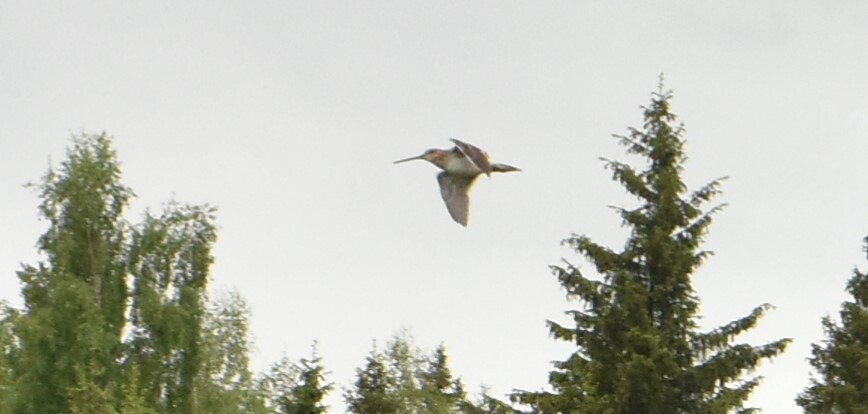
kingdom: Animalia
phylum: Chordata
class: Aves
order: Charadriiformes
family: Scolopacidae
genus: Gallinago
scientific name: Gallinago gallinago
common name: Common snipe
